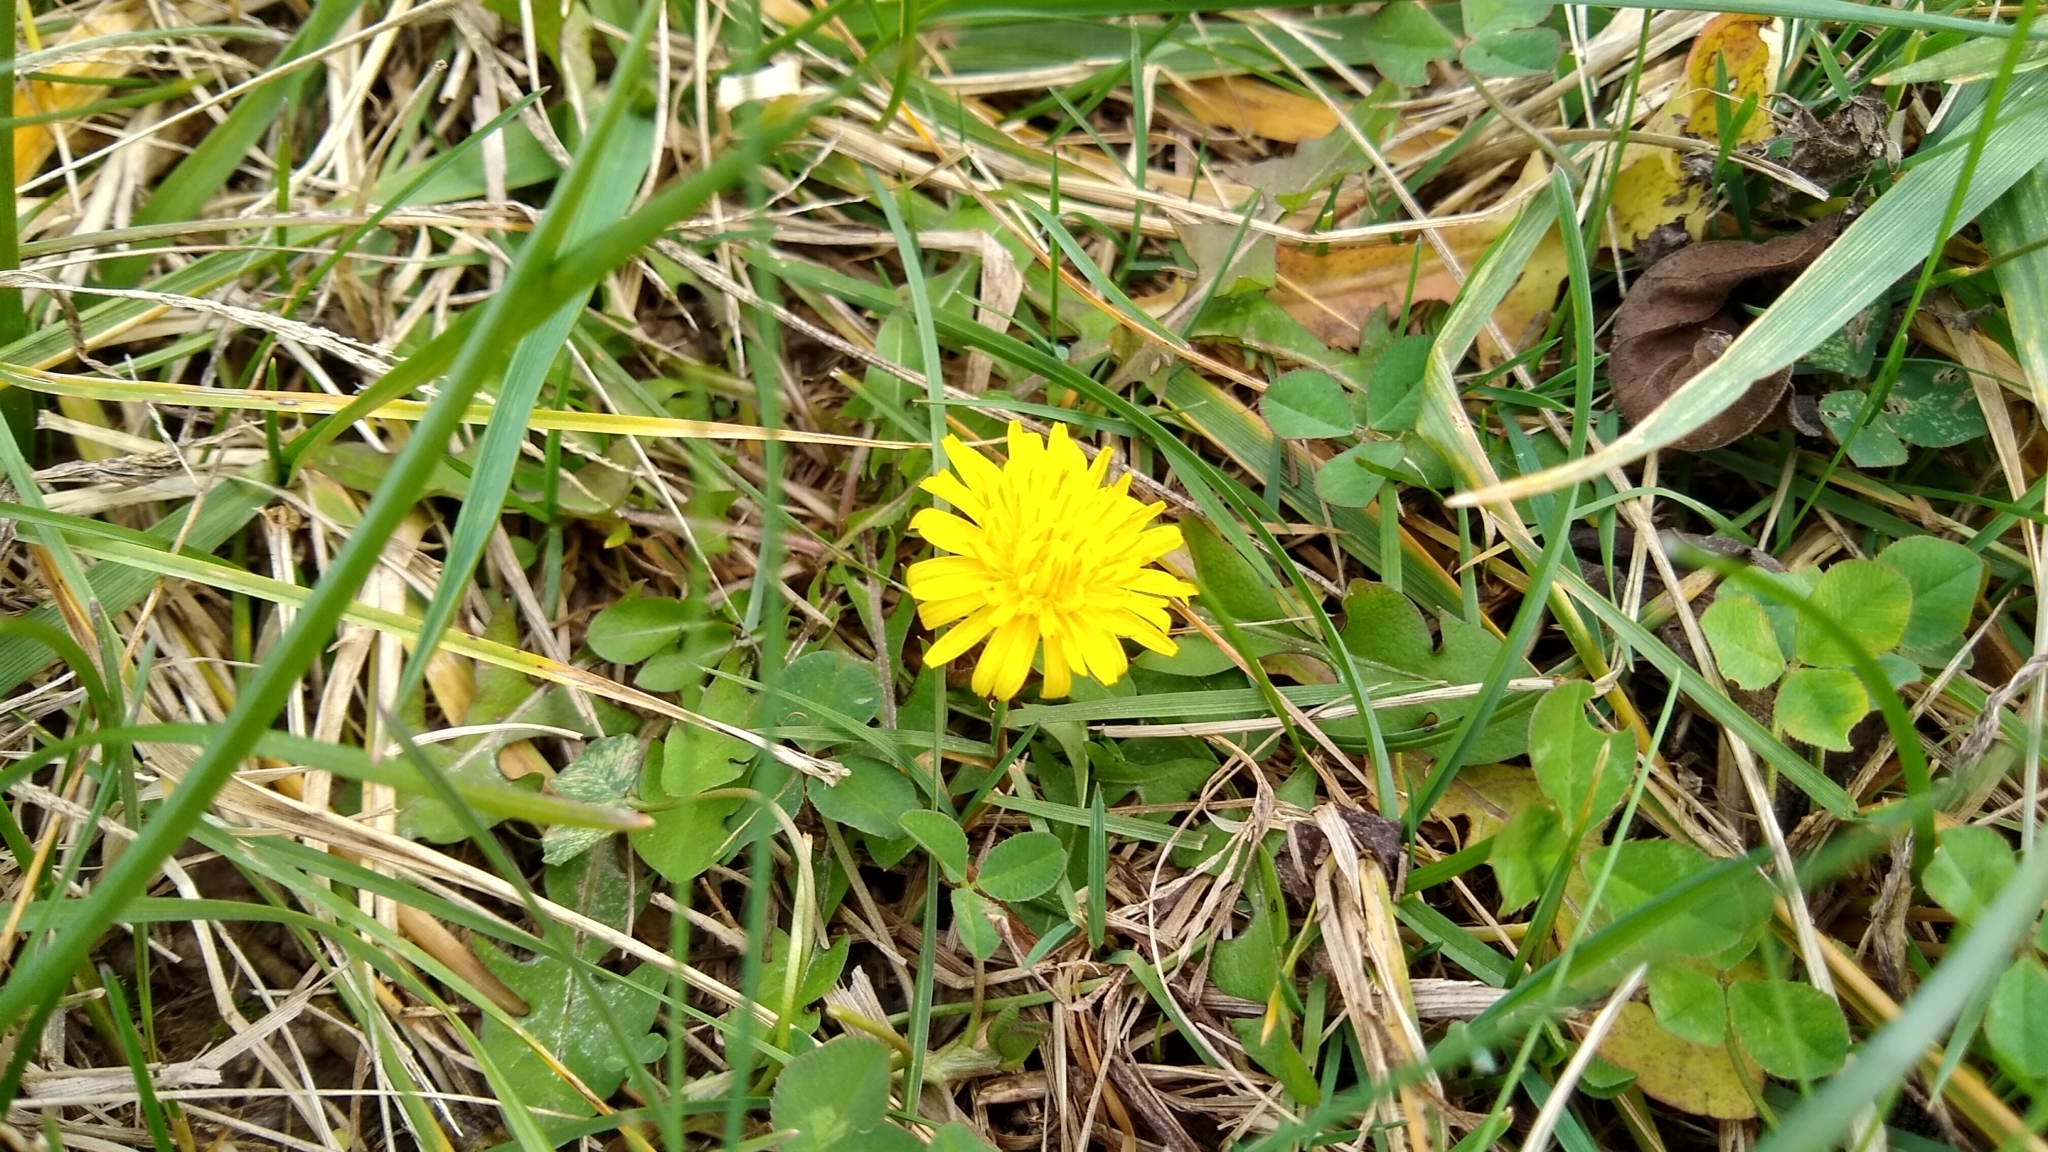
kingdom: Plantae
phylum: Tracheophyta
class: Magnoliopsida
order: Asterales
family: Asteraceae
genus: Taraxacum
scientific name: Taraxacum officinale
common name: Common dandelion
